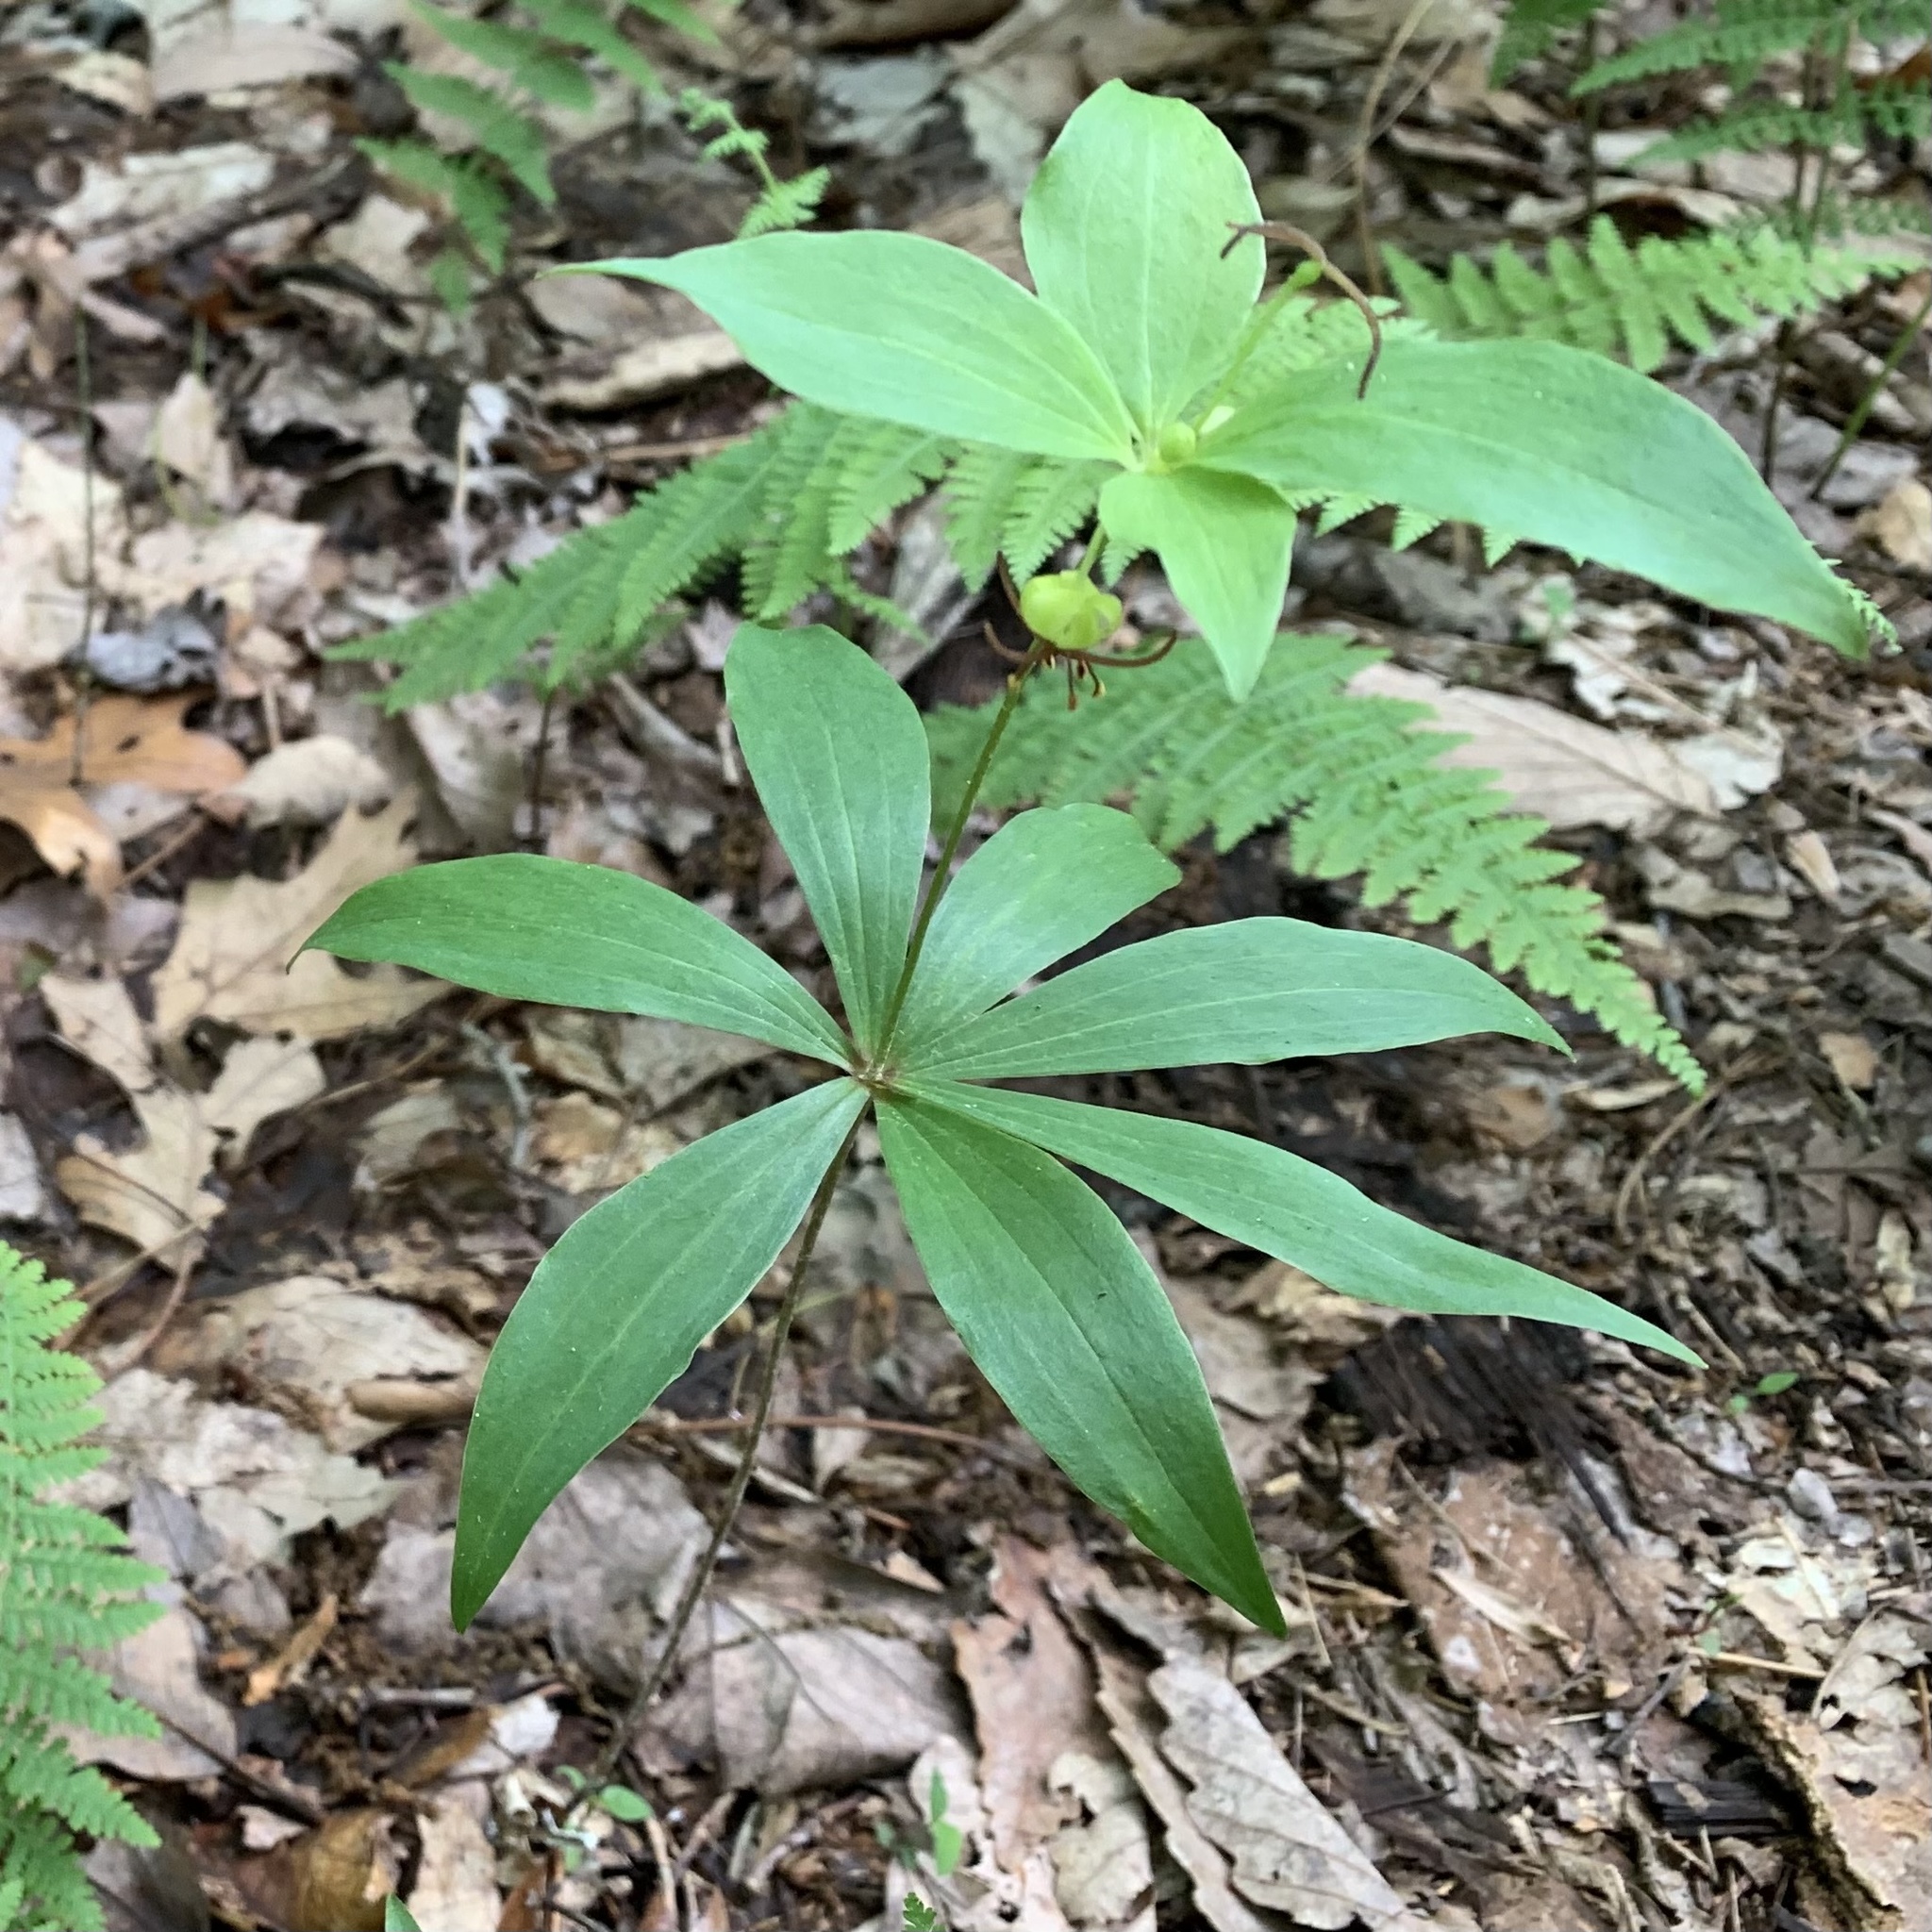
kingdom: Plantae
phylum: Tracheophyta
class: Liliopsida
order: Liliales
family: Liliaceae
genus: Medeola
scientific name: Medeola virginiana
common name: Indian cucumber-root
